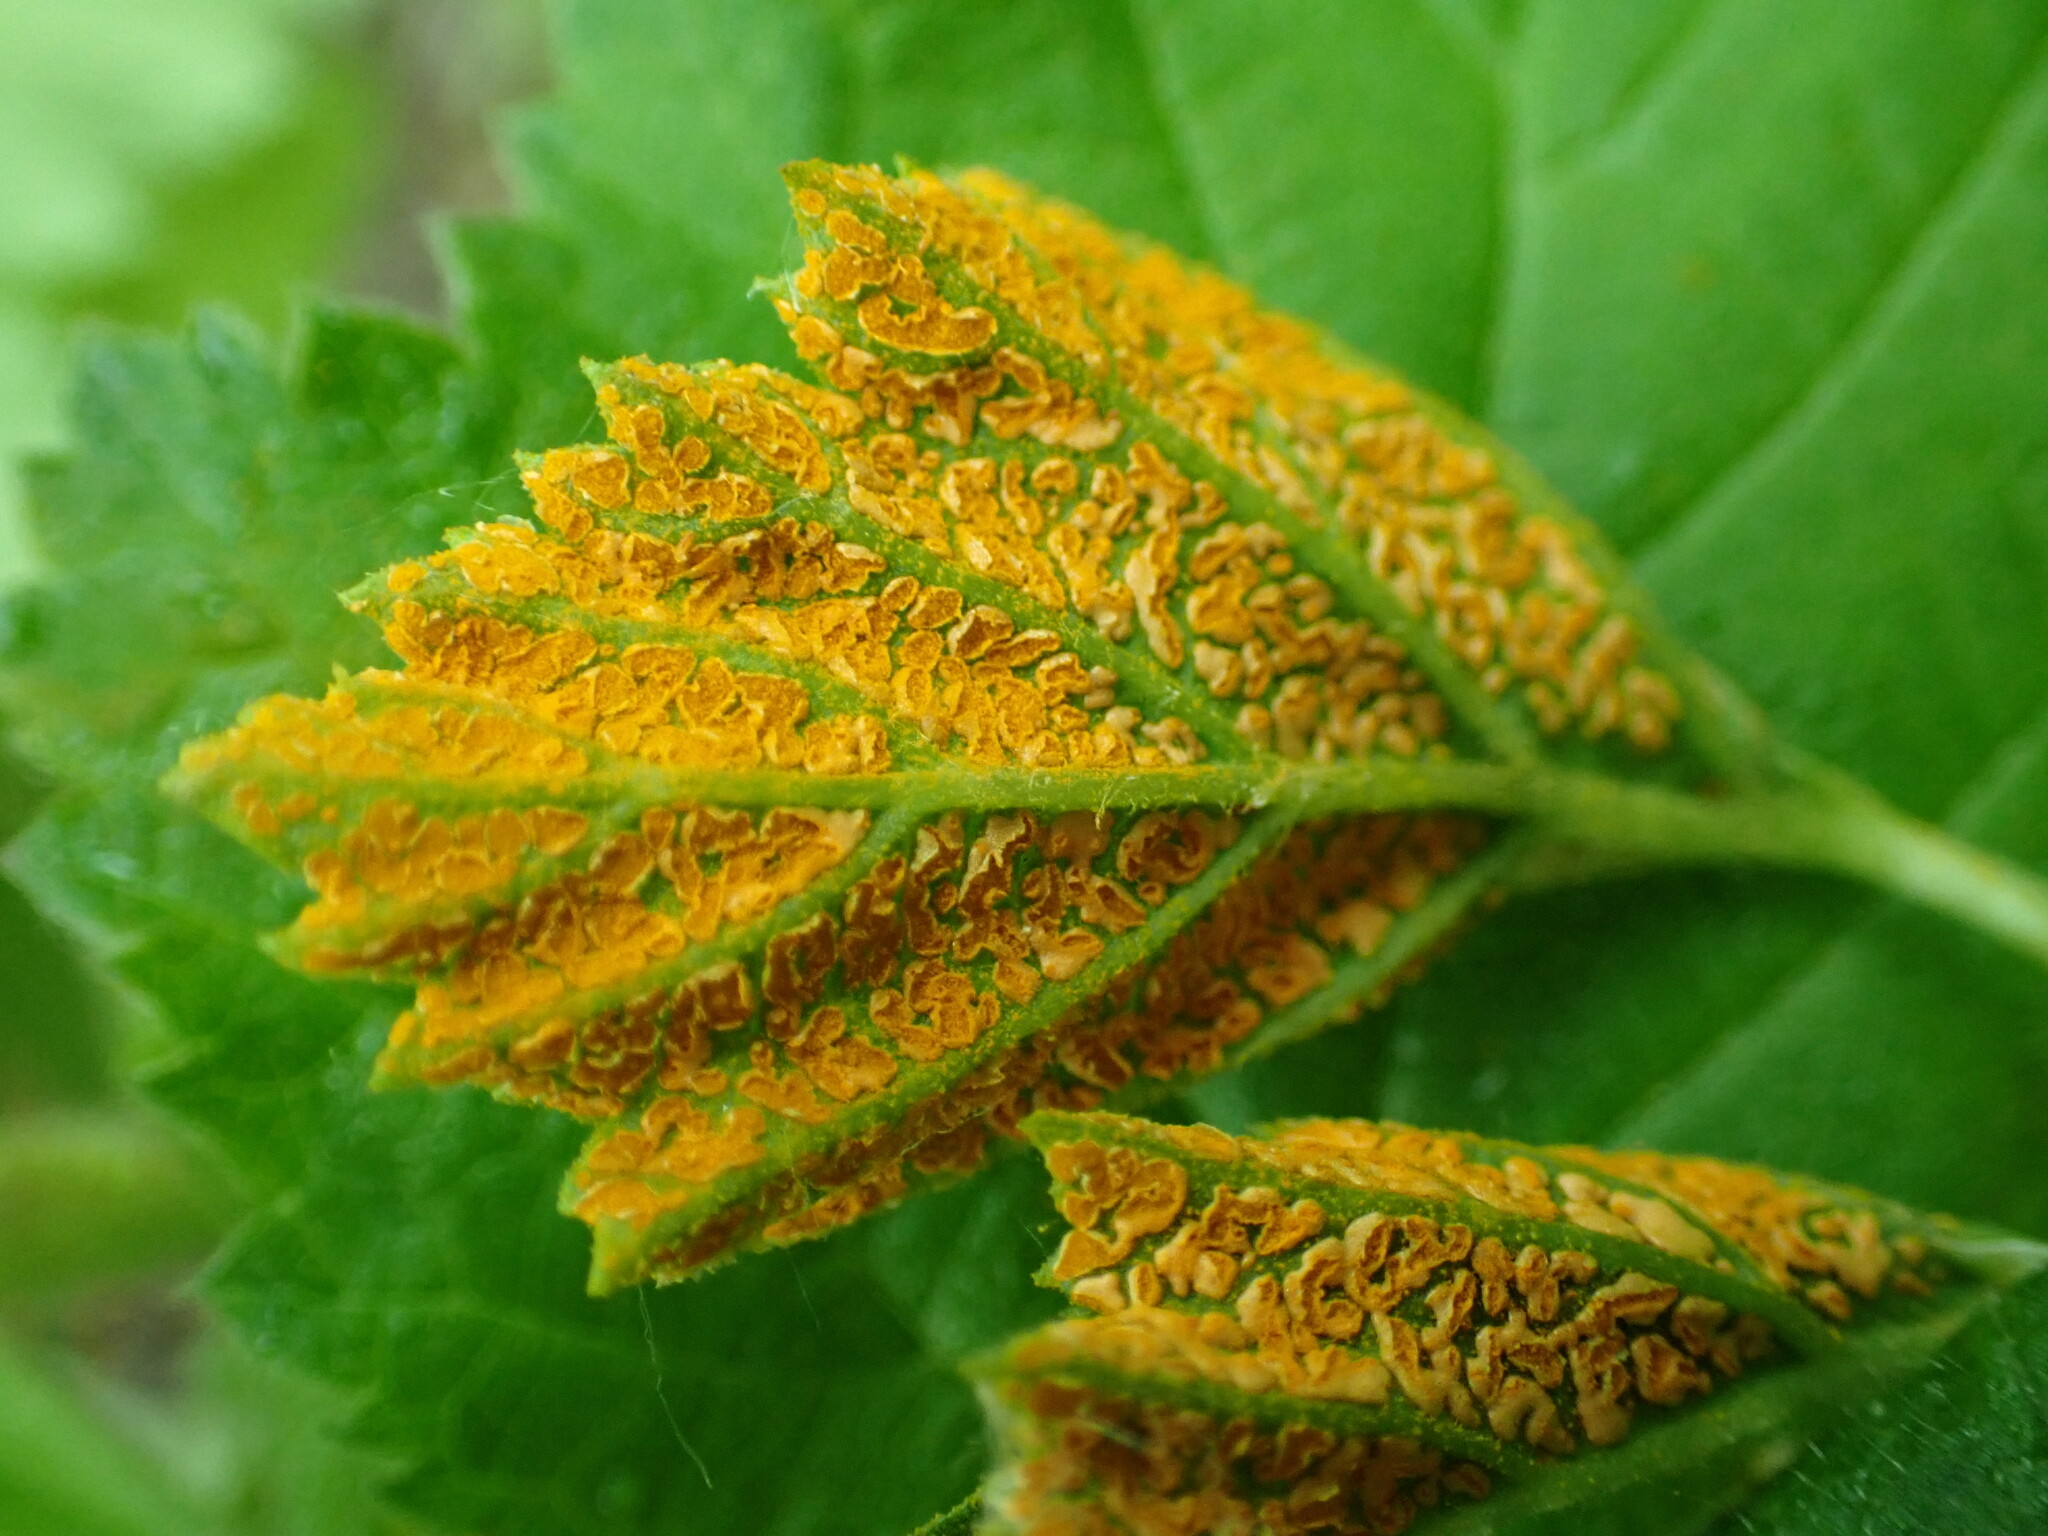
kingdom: Fungi
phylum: Basidiomycota
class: Pucciniomycetes
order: Pucciniales
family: Phragmidiaceae
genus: Arthuriomyces
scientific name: Arthuriomyces peckianus
